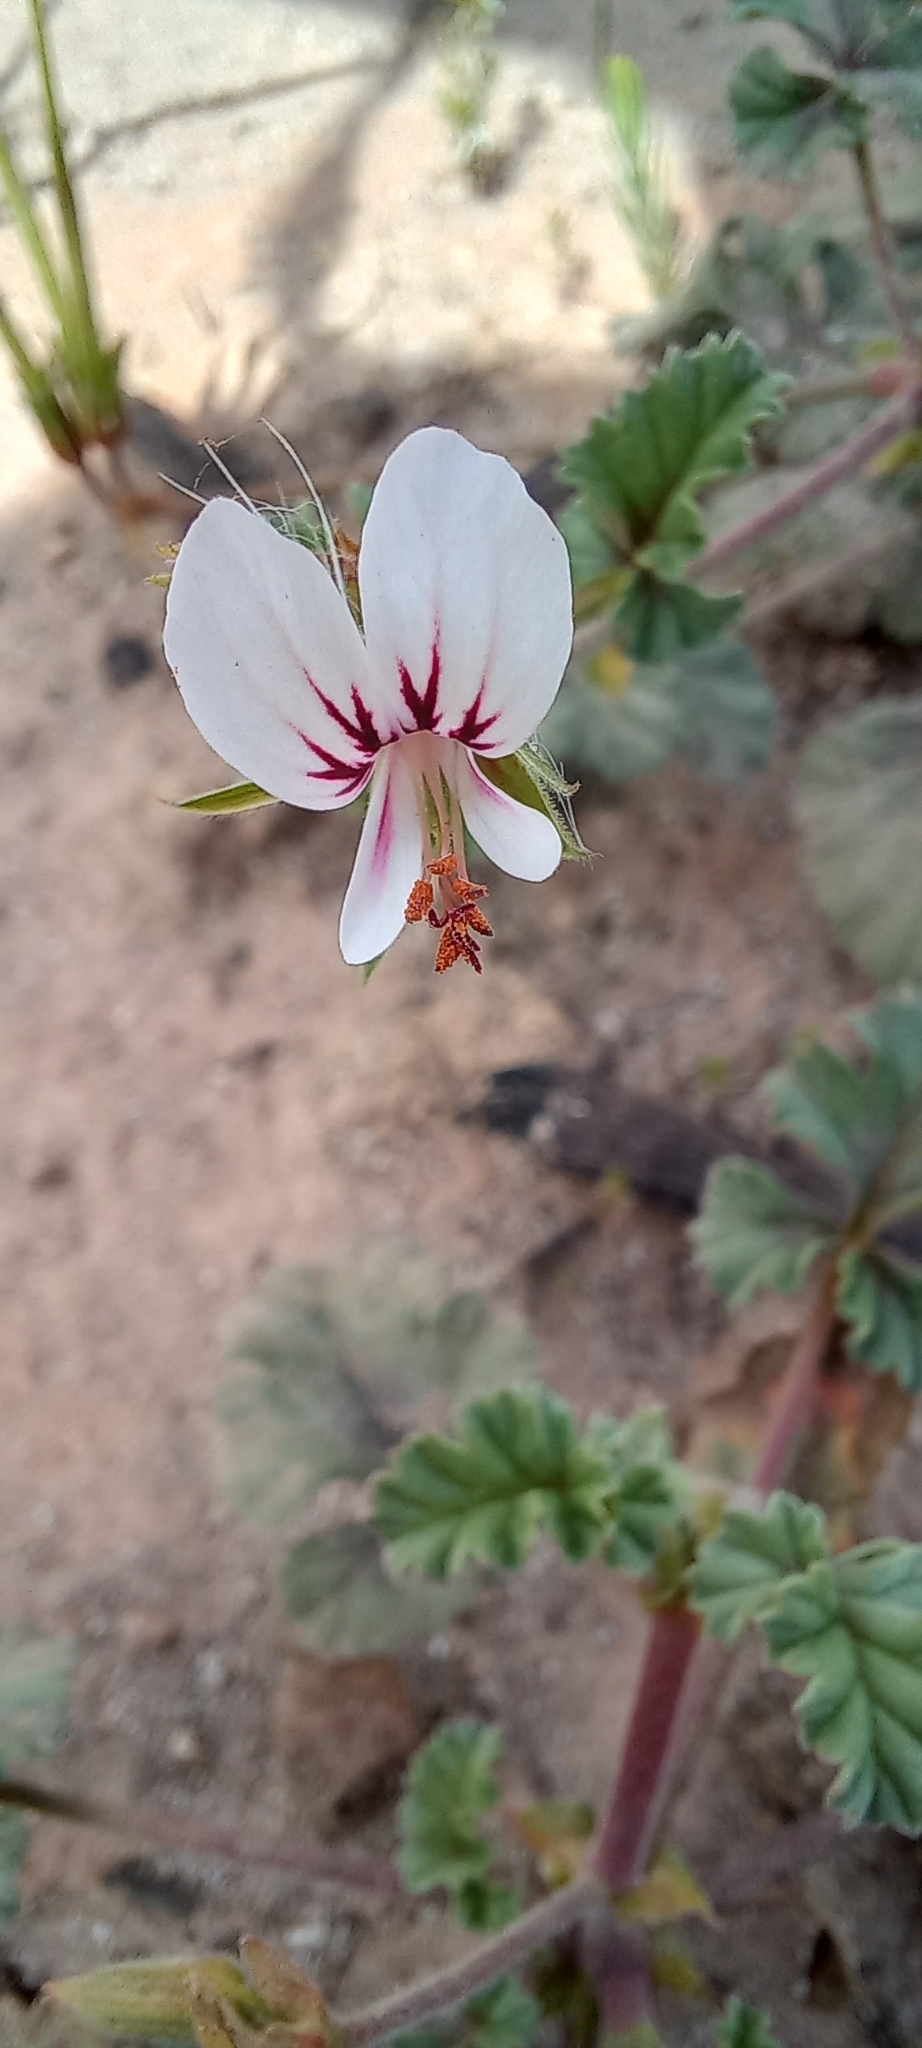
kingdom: Plantae
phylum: Tracheophyta
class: Magnoliopsida
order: Geraniales
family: Geraniaceae
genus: Pelargonium
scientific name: Pelargonium candicans
